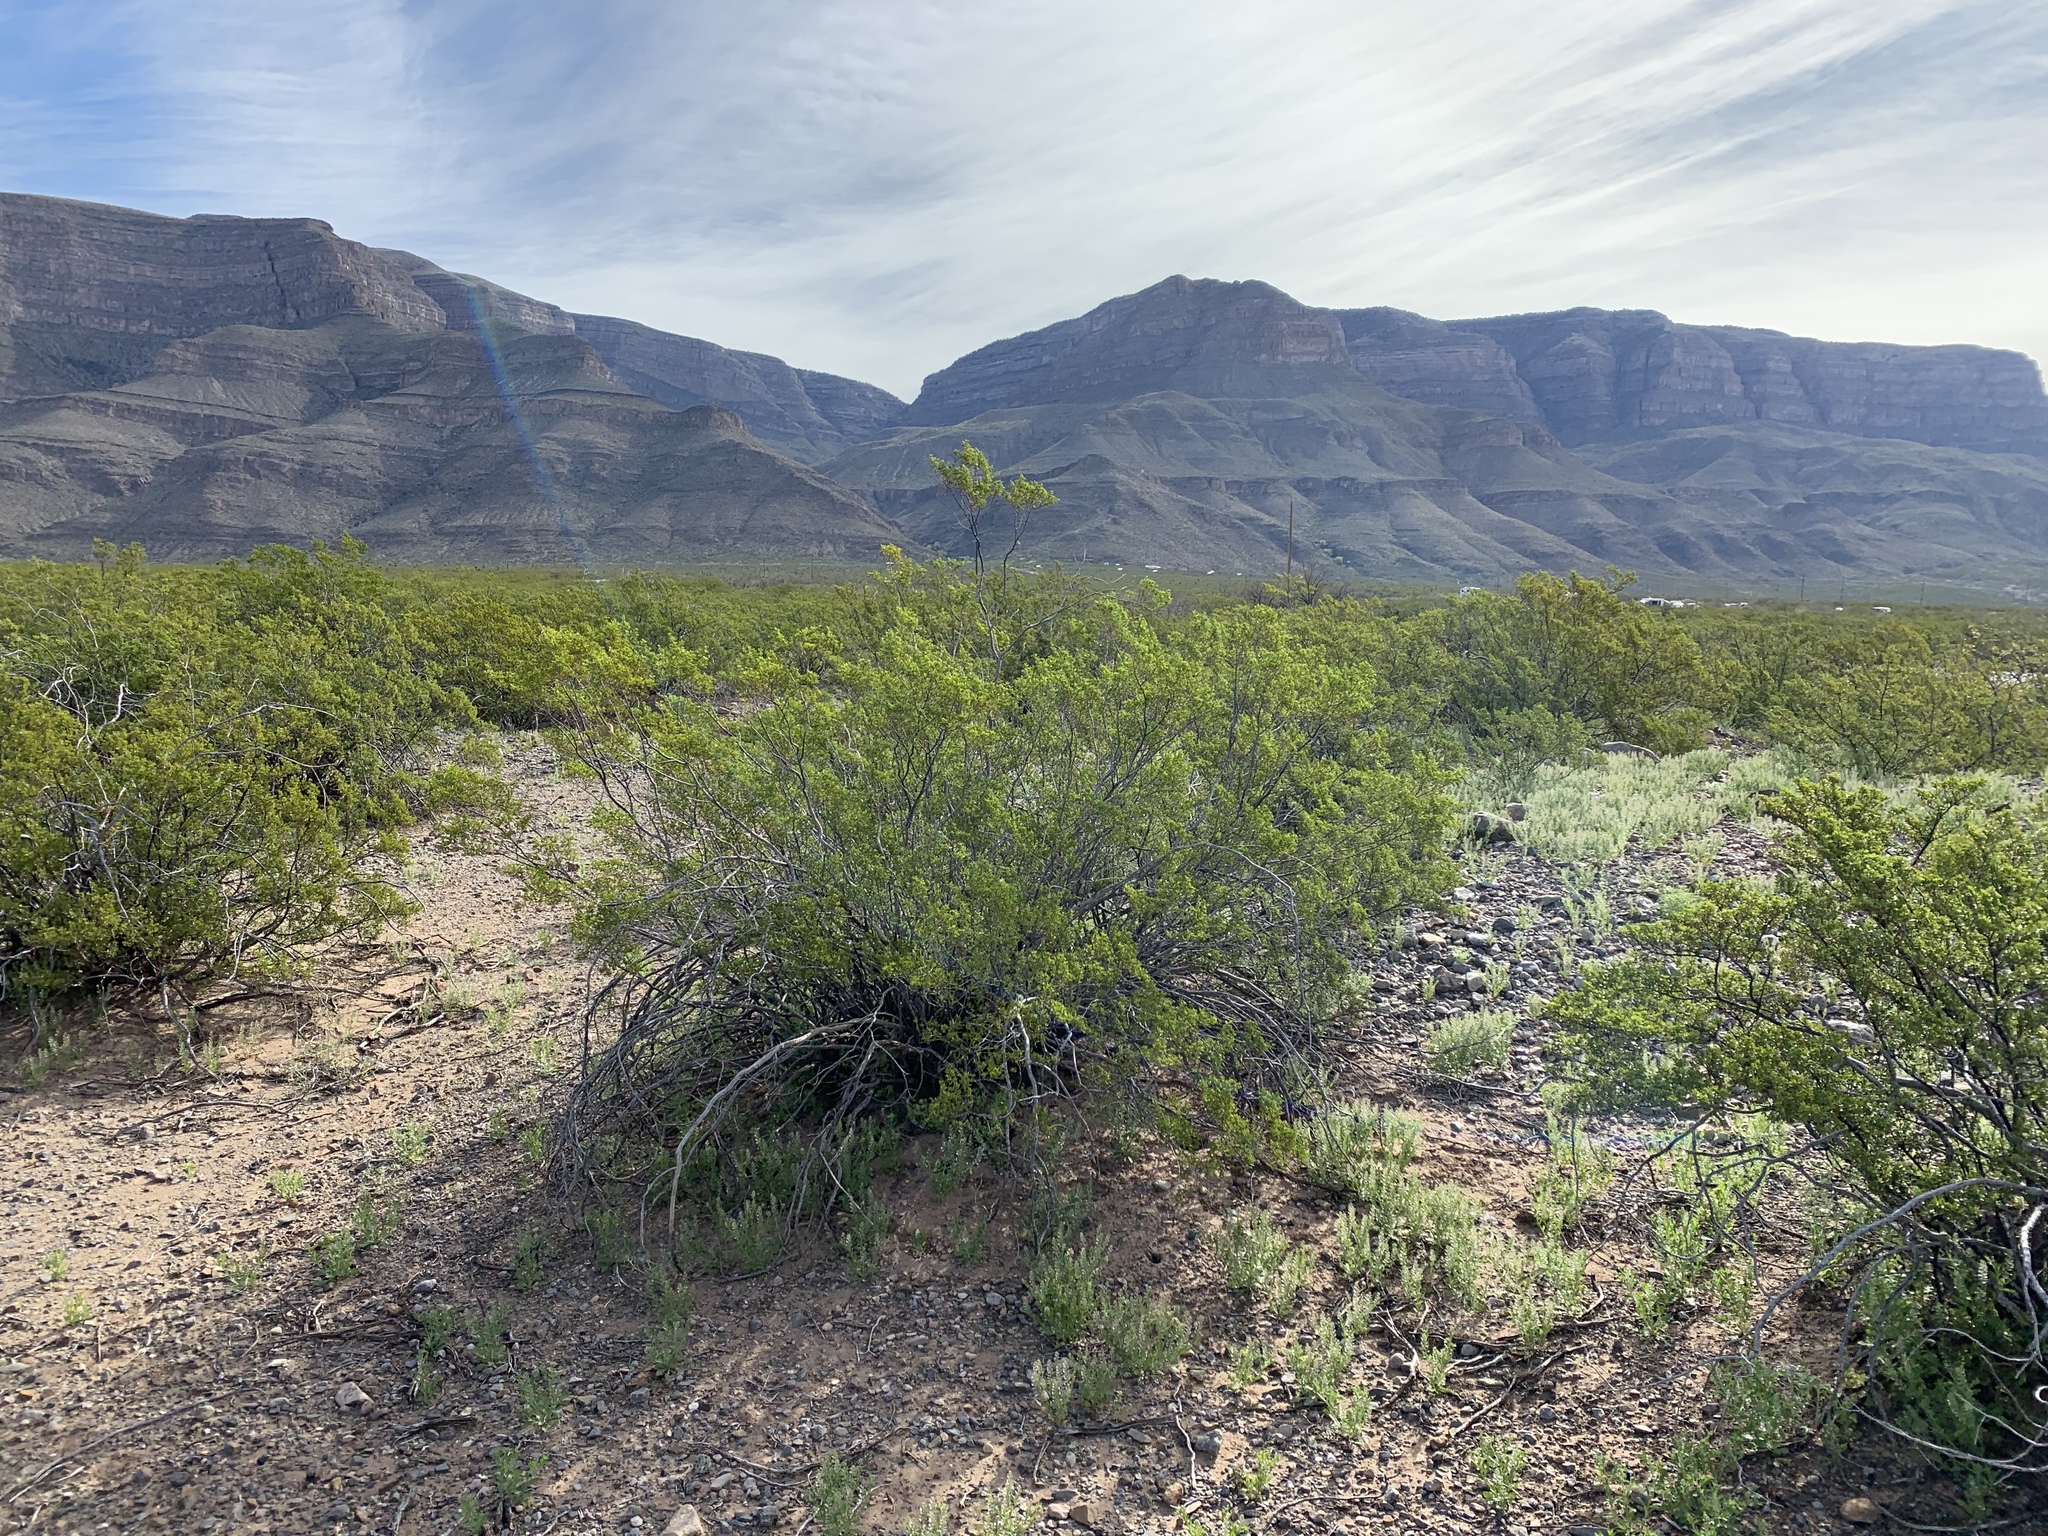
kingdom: Plantae
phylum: Tracheophyta
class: Magnoliopsida
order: Zygophyllales
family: Zygophyllaceae
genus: Larrea
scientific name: Larrea tridentata
